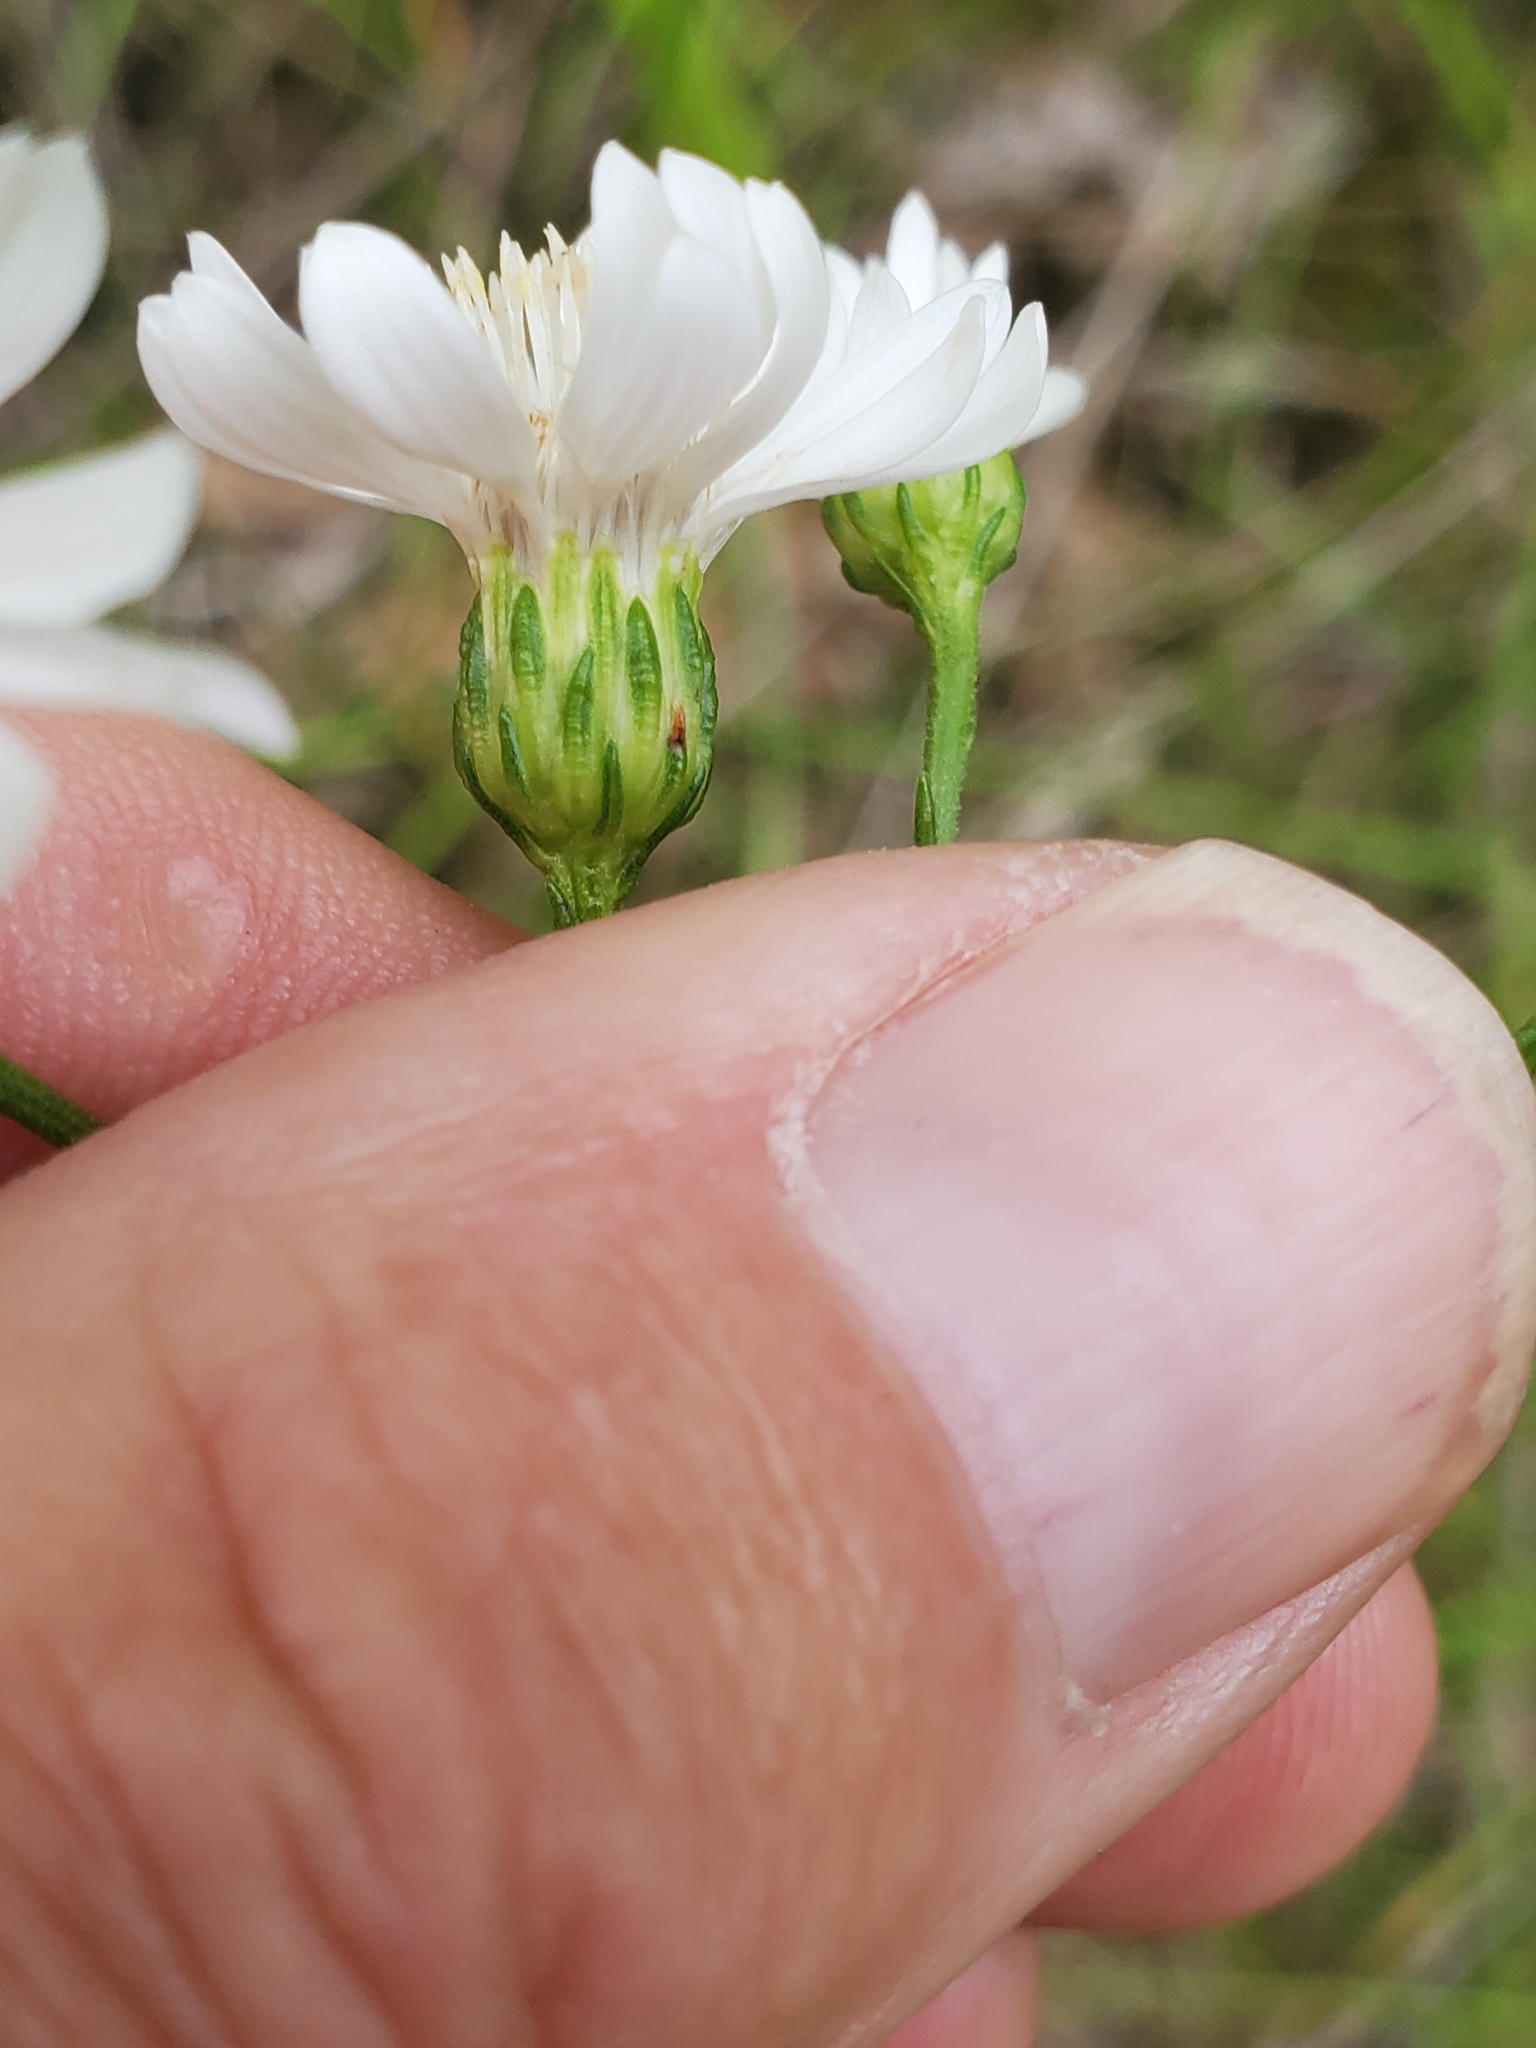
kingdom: Plantae
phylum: Tracheophyta
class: Magnoliopsida
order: Asterales
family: Asteraceae
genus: Solidago
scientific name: Solidago ptarmicoides
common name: White flat-top goldenrod
